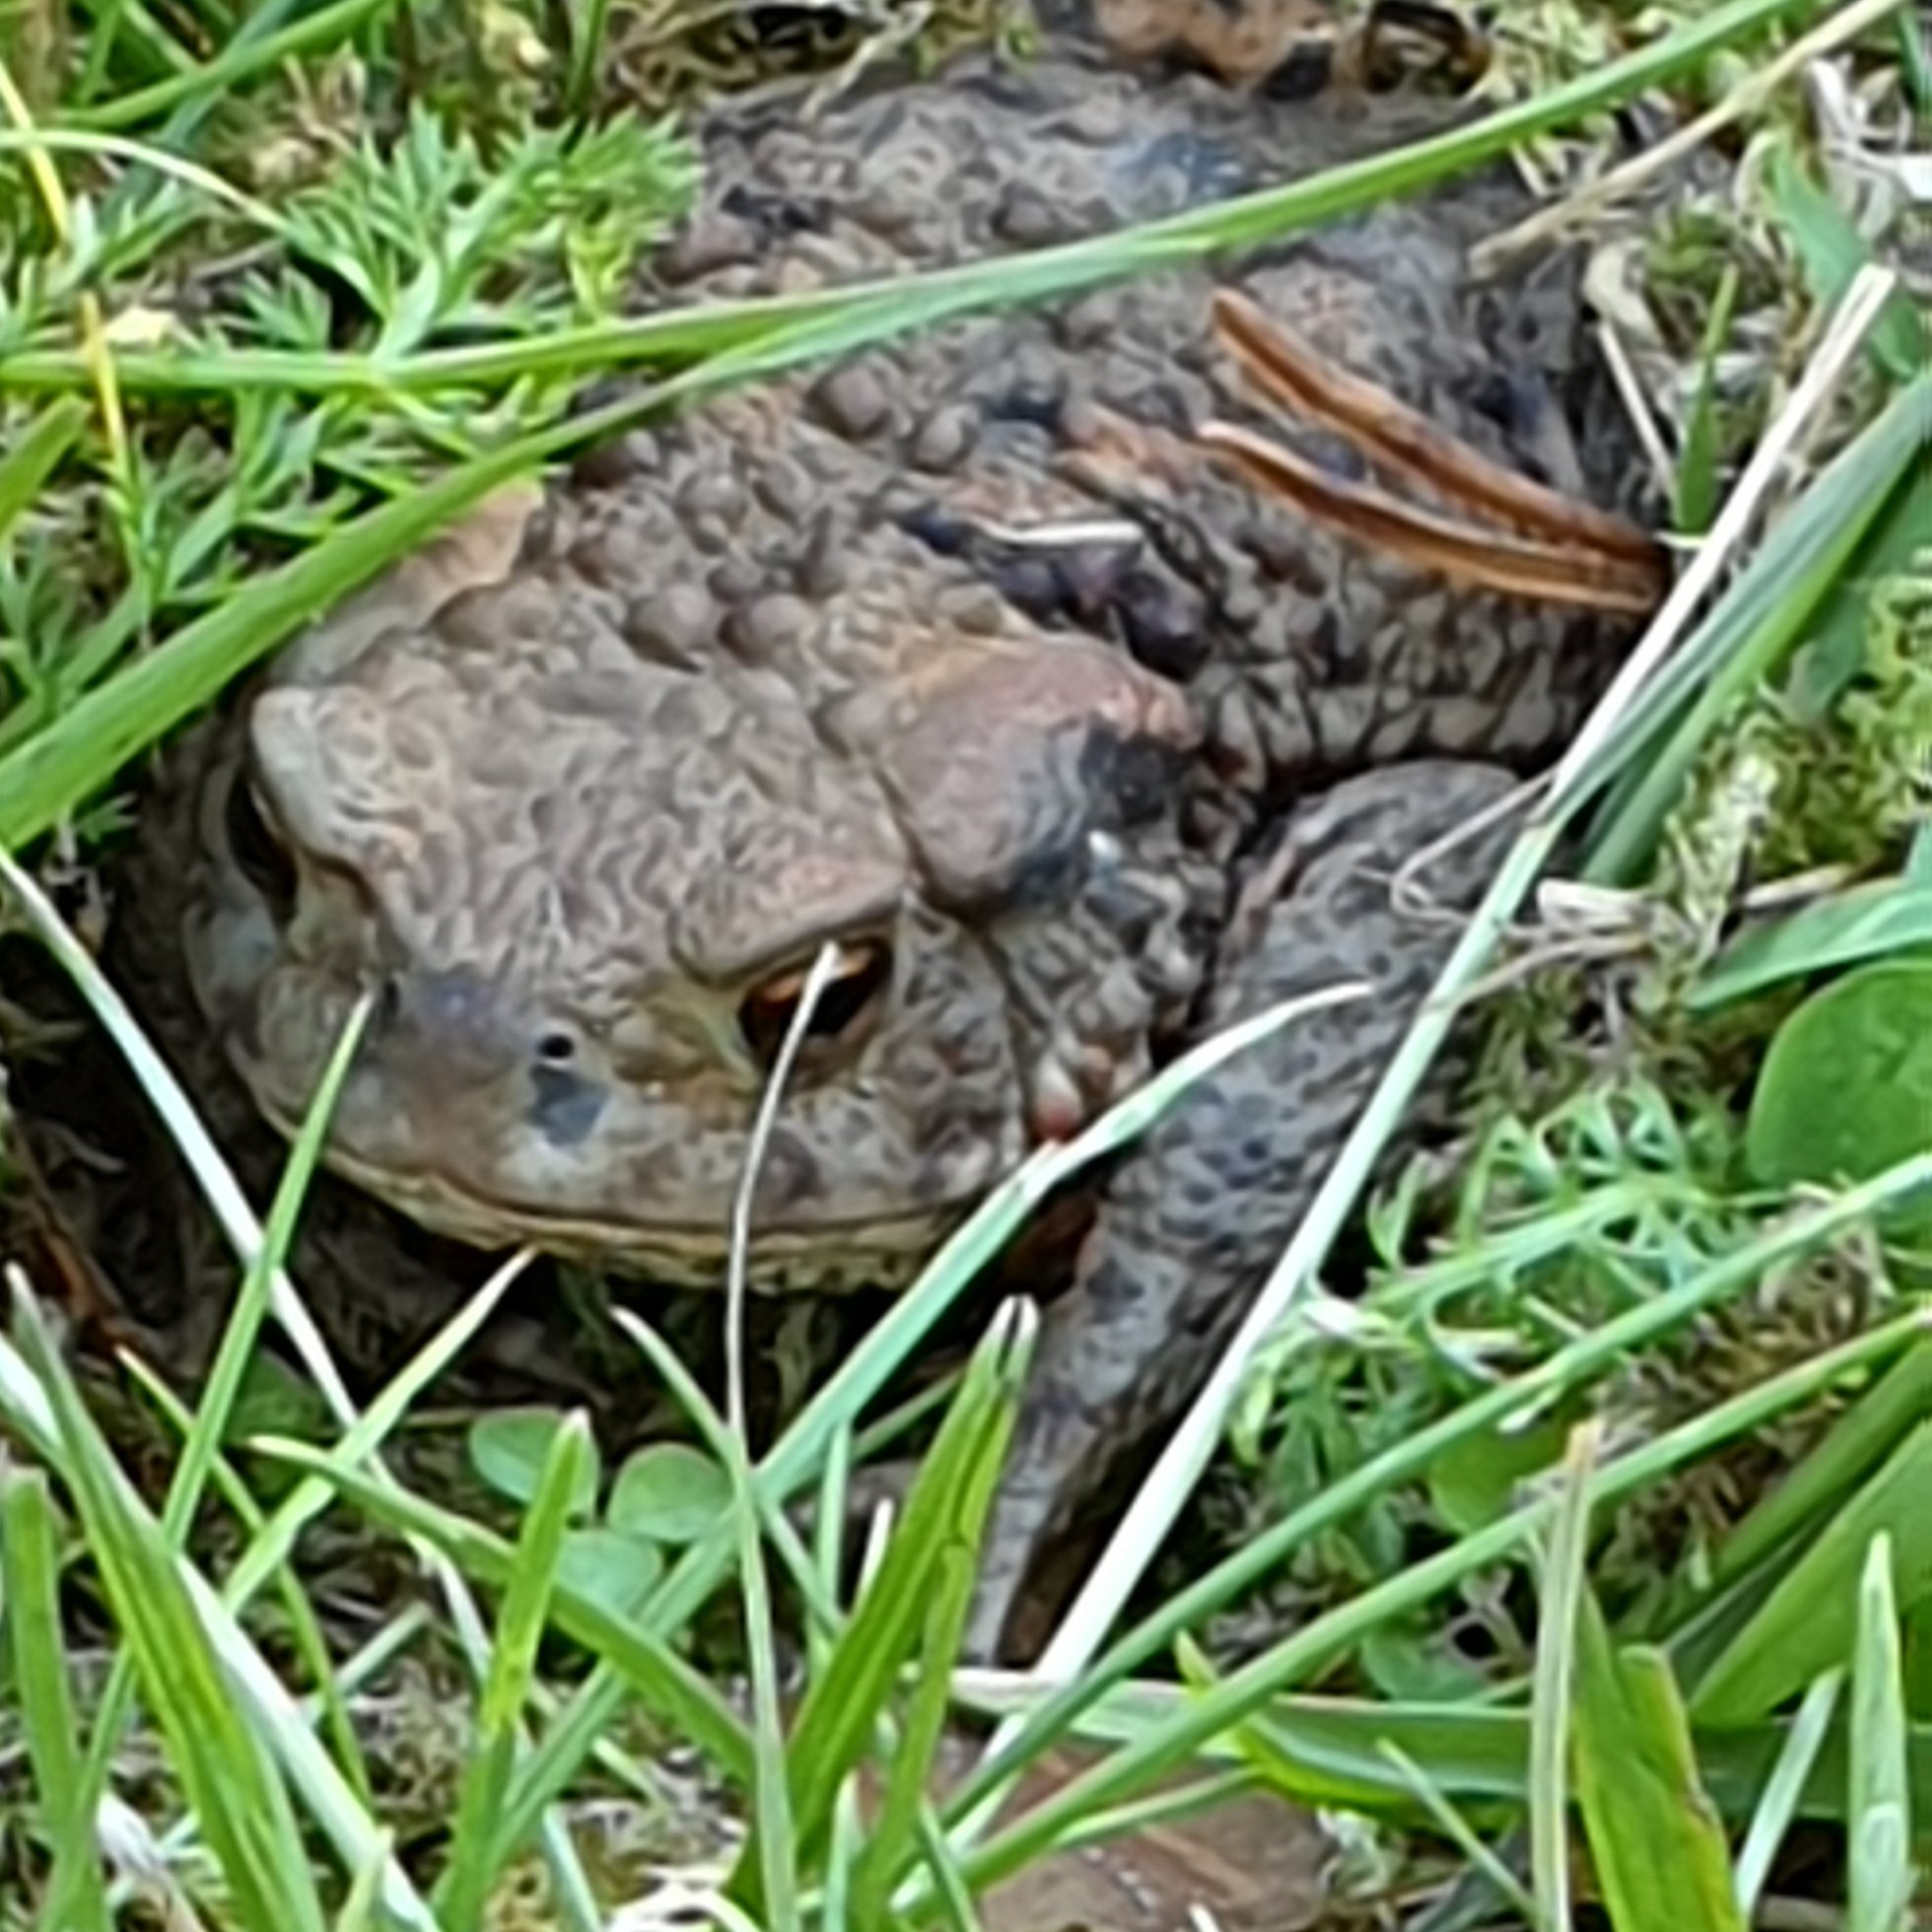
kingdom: Animalia
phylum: Chordata
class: Amphibia
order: Anura
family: Bufonidae
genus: Bufo
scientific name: Bufo bufo
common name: Common toad
